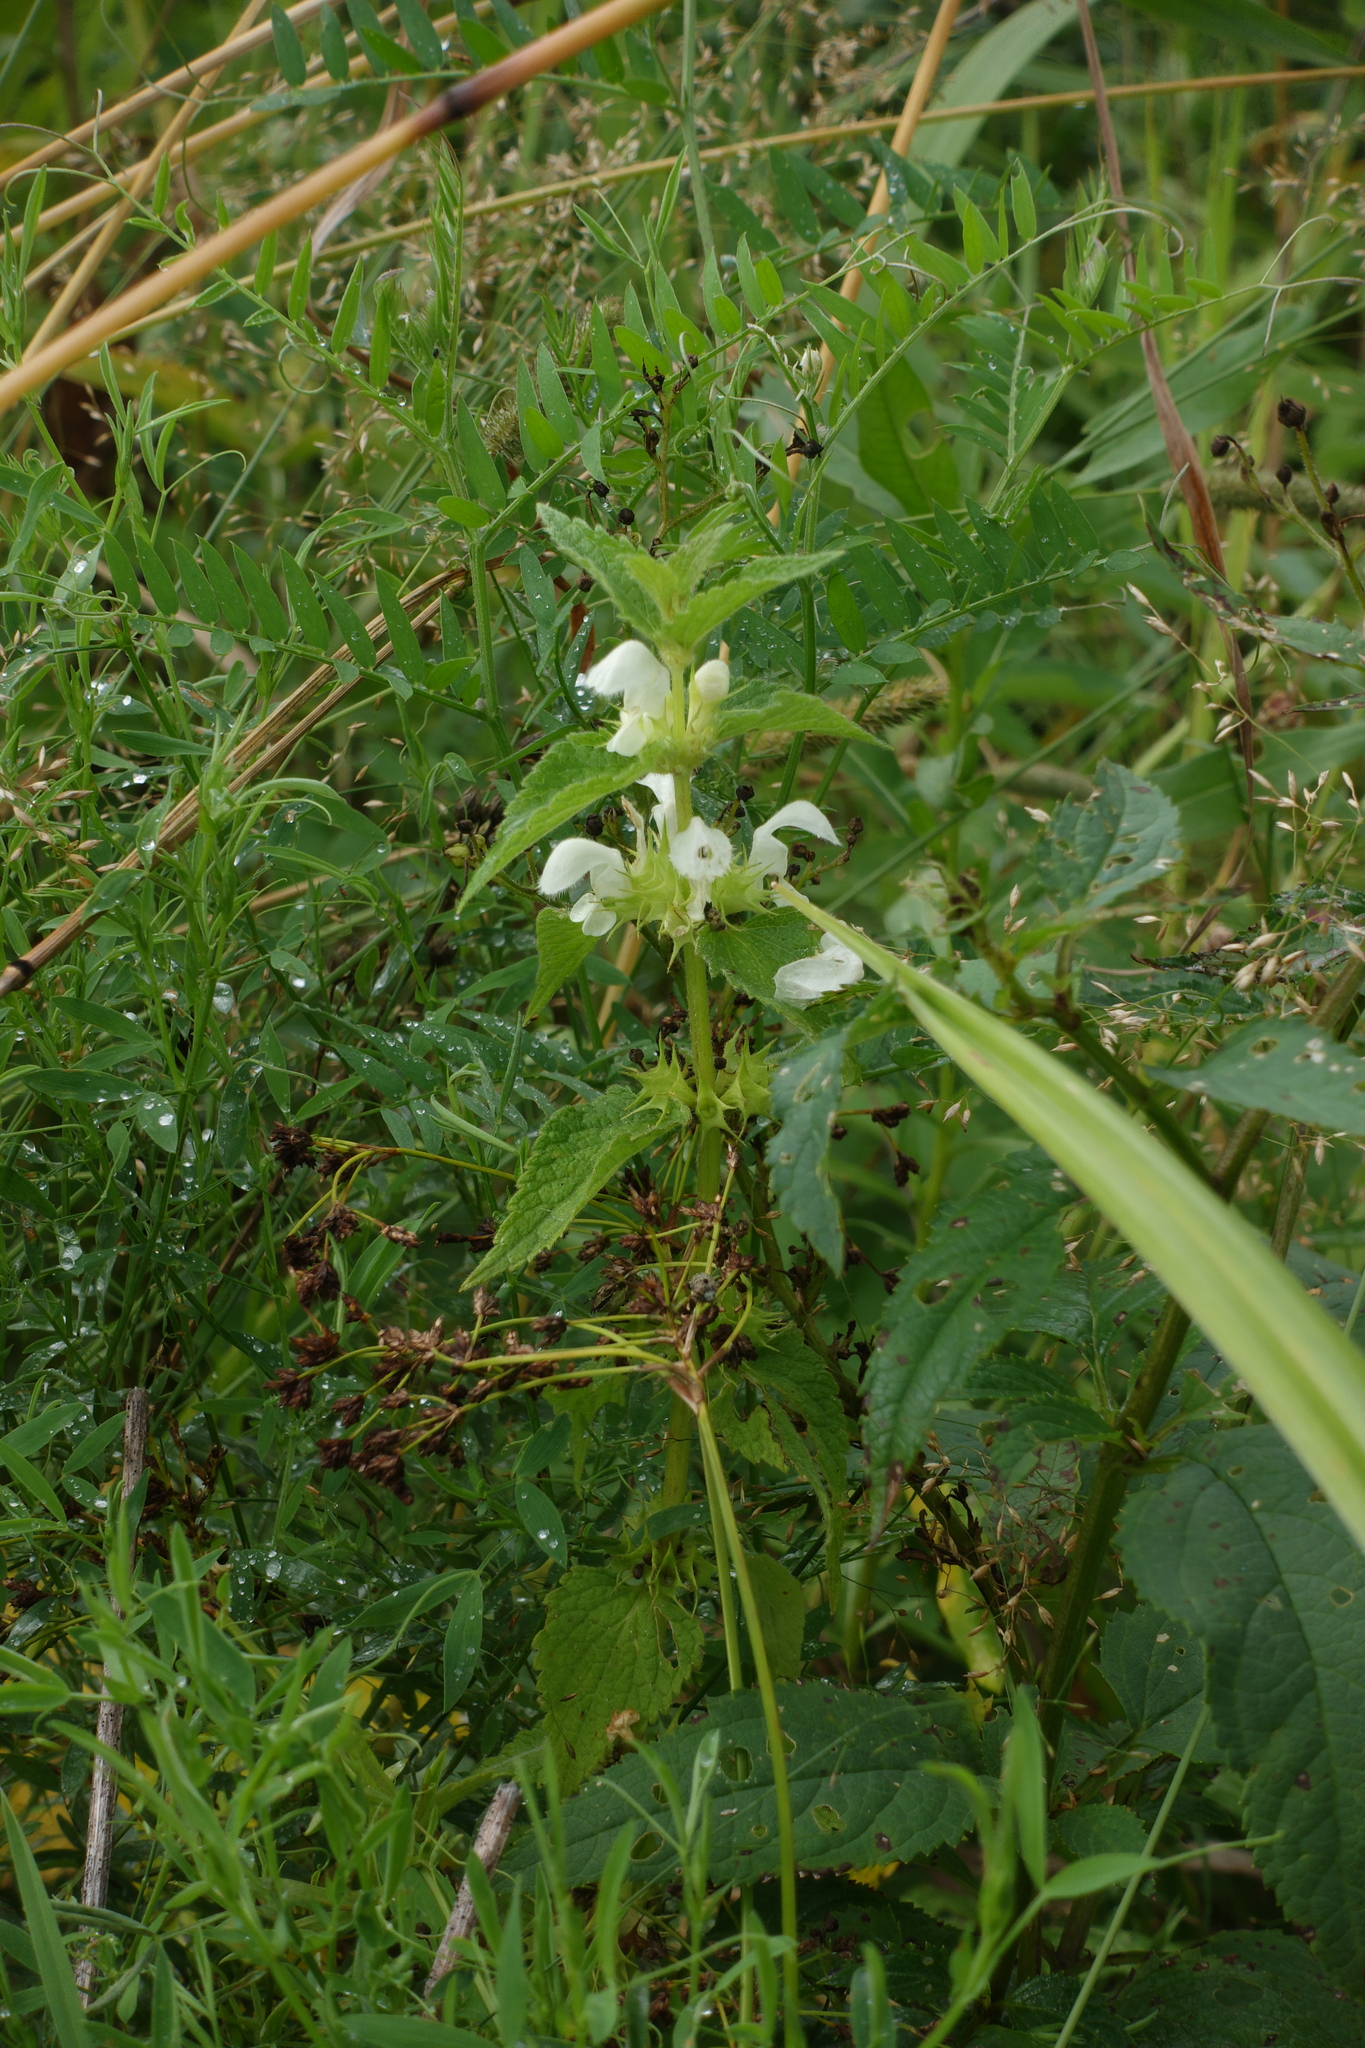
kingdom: Plantae
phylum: Tracheophyta
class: Magnoliopsida
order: Lamiales
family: Lamiaceae
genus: Lamium
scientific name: Lamium album
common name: White dead-nettle
